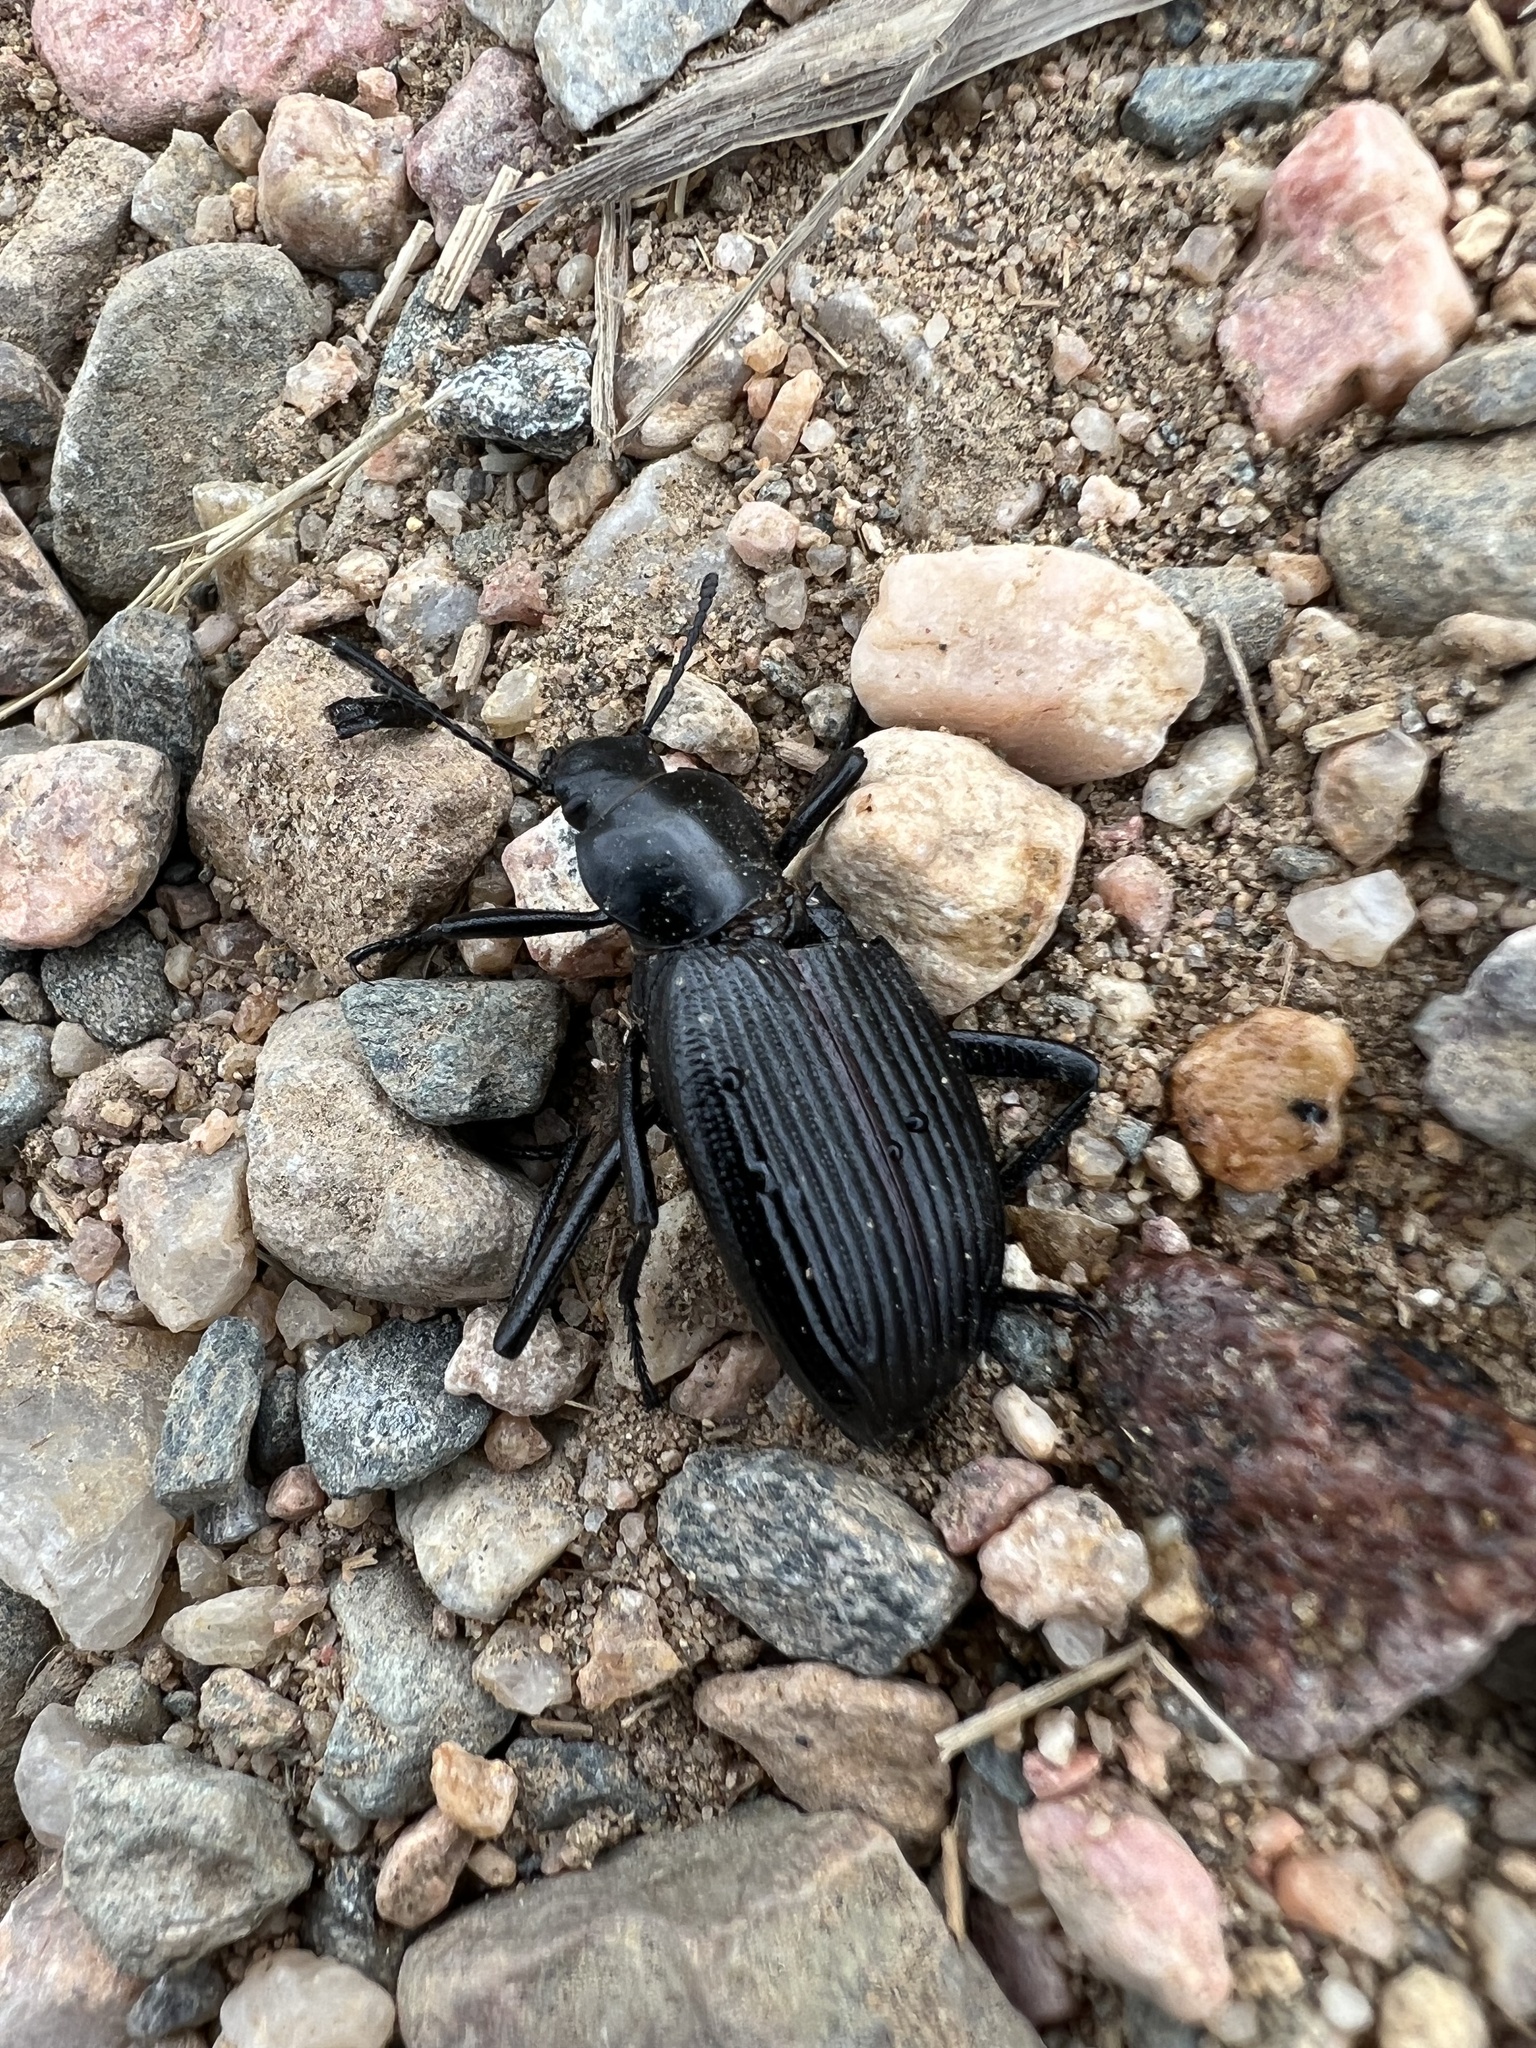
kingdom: Animalia
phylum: Arthropoda
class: Insecta
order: Coleoptera
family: Tenebrionidae
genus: Eleodes
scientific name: Eleodes hispilabris
